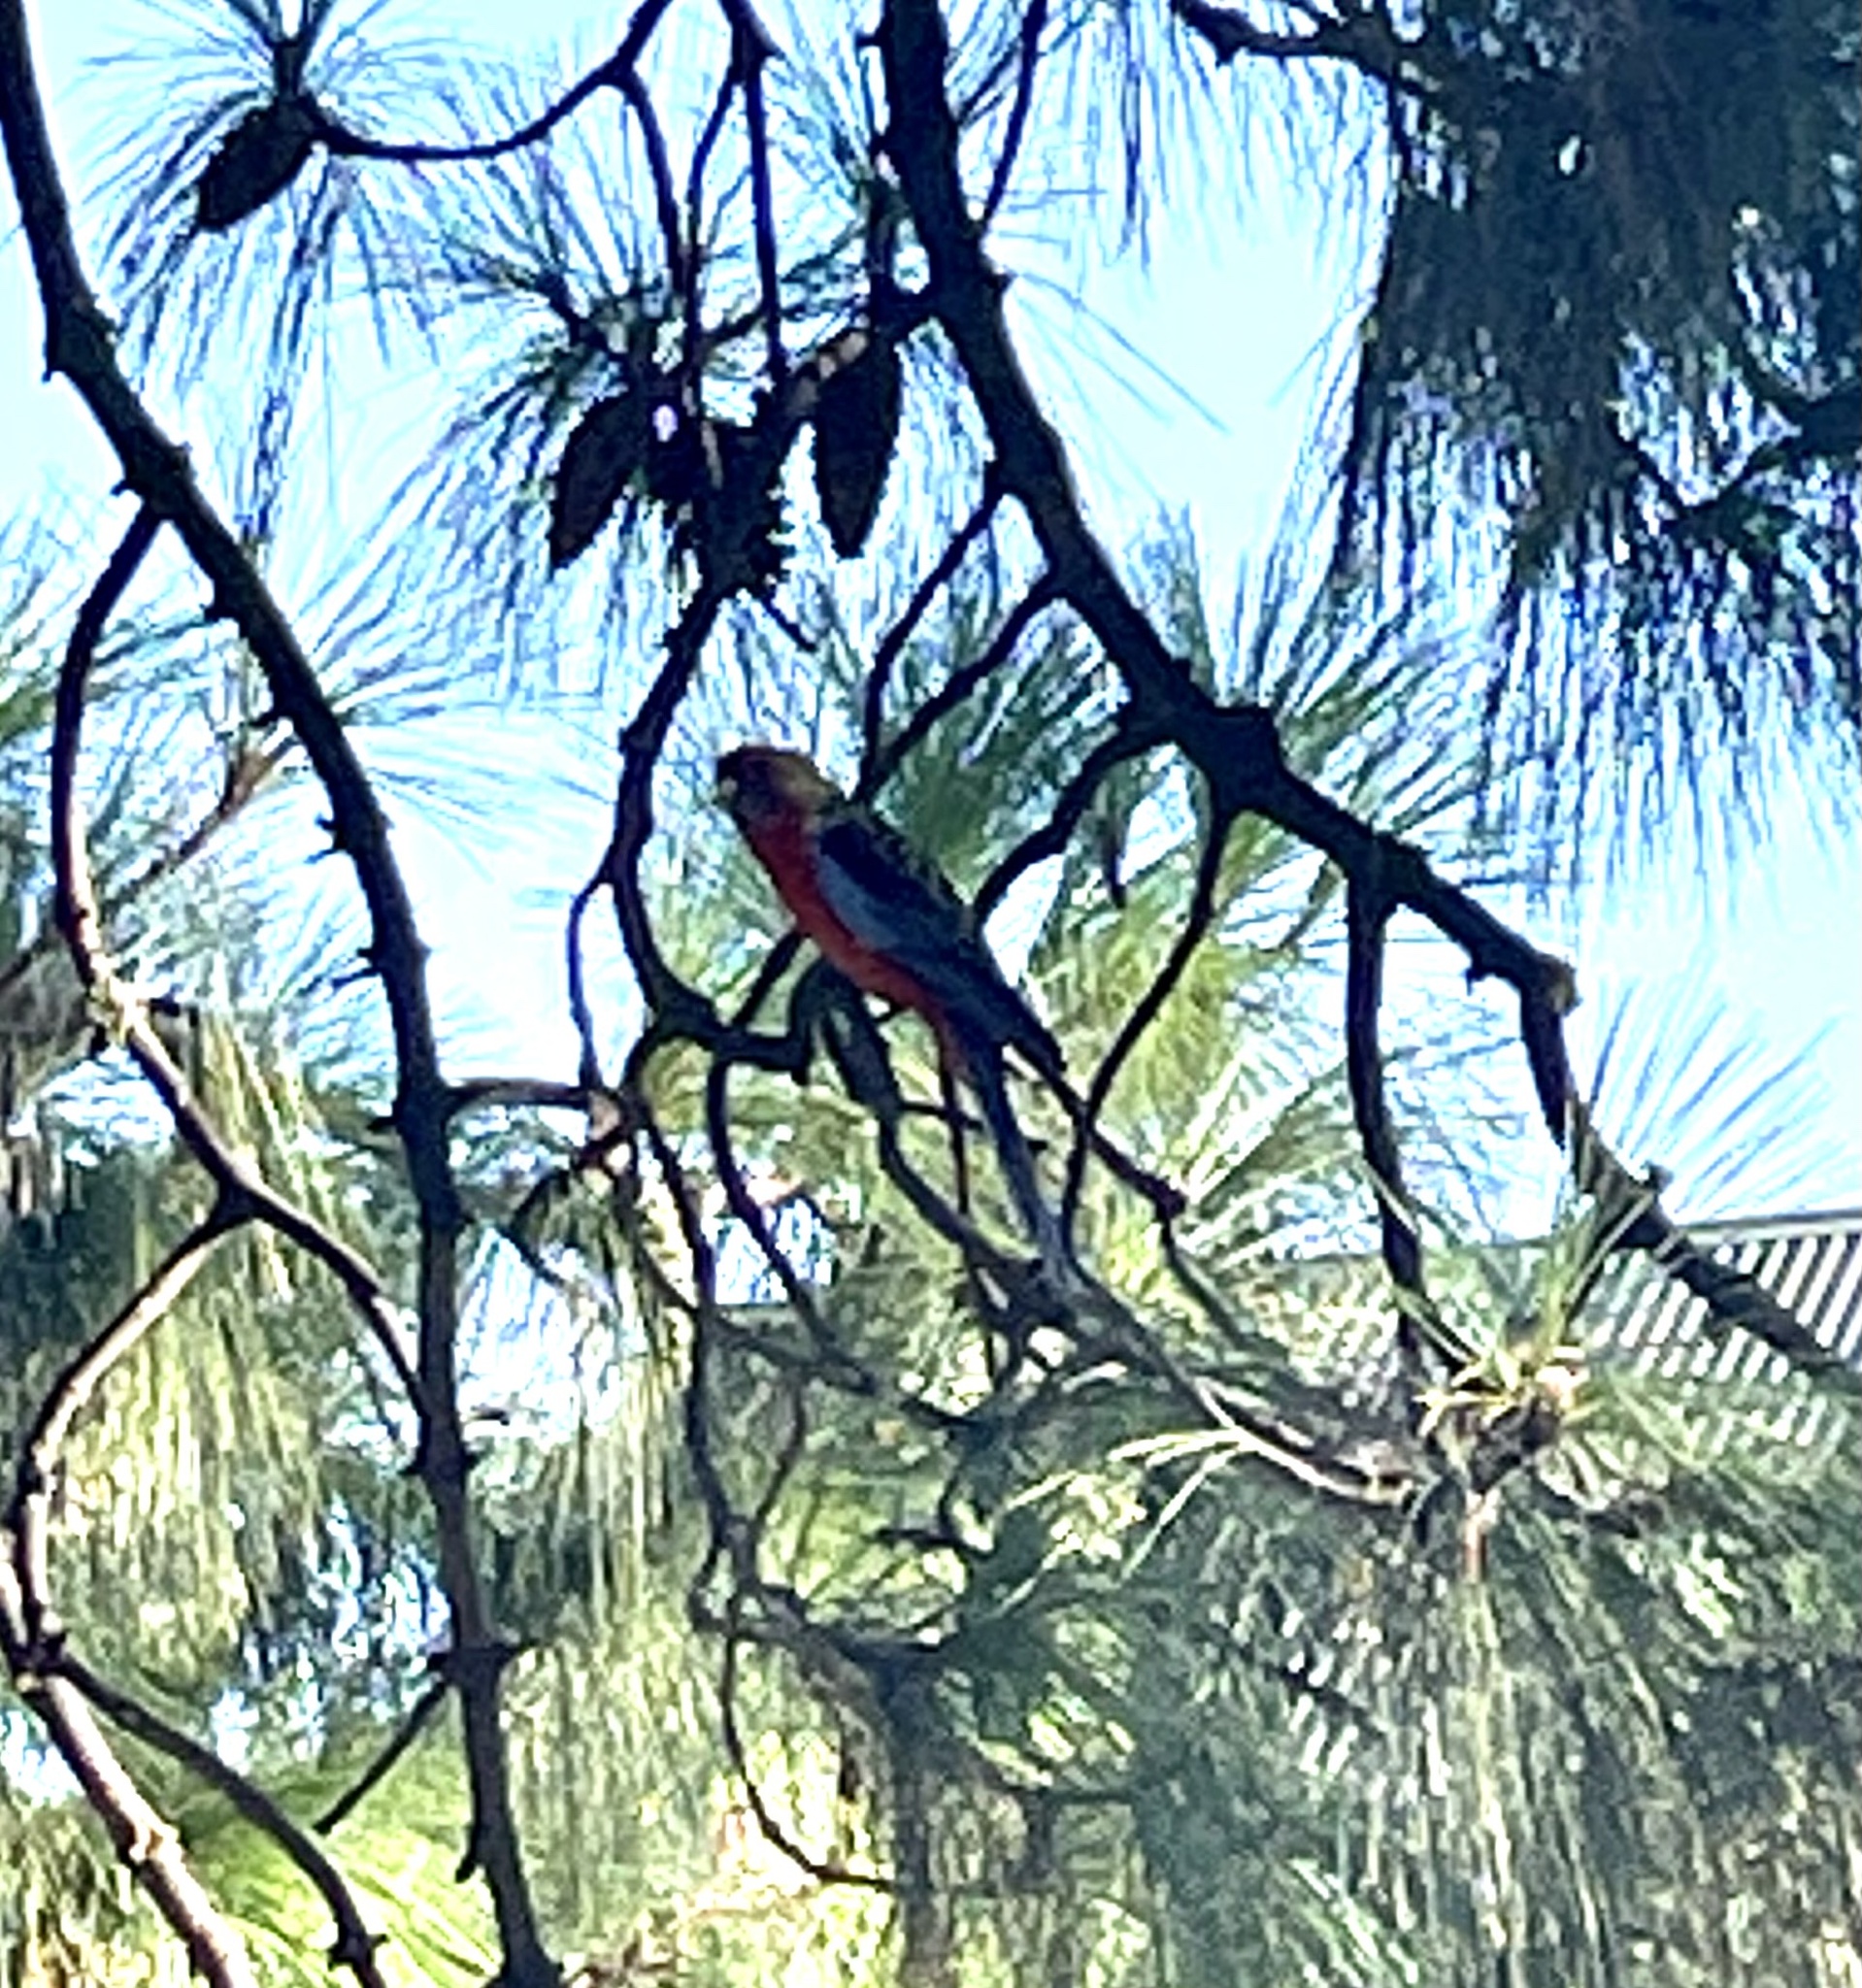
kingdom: Animalia
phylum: Chordata
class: Aves
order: Psittaciformes
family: Psittacidae
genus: Platycercus
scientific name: Platycercus elegans
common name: Crimson rosella
